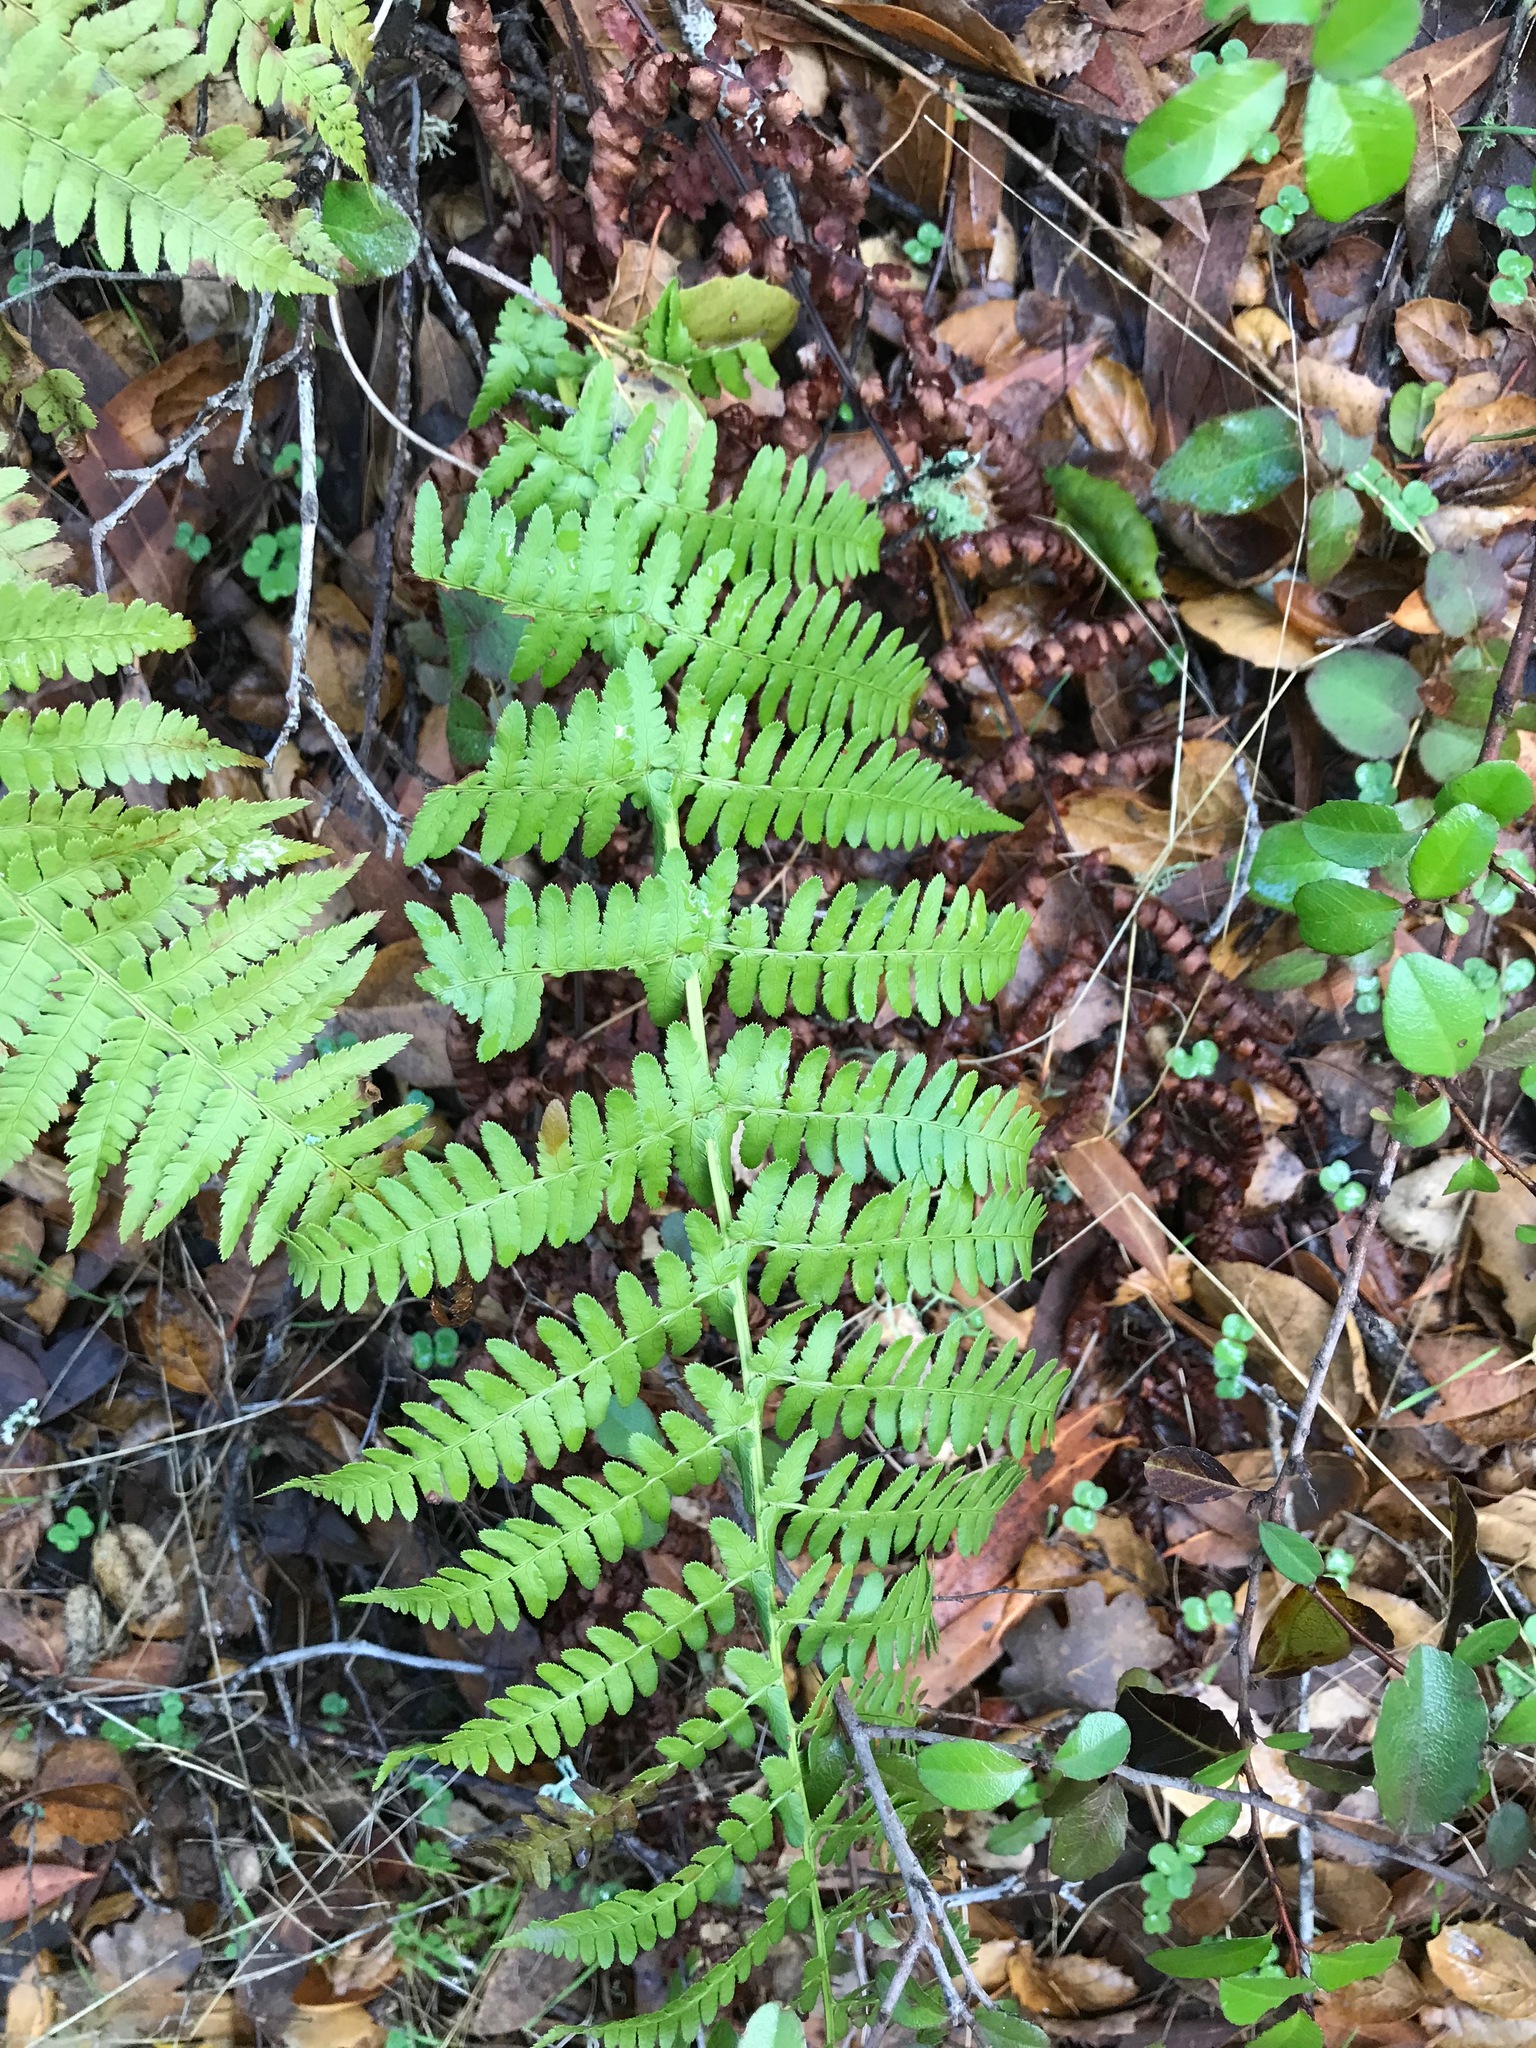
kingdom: Plantae
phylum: Tracheophyta
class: Polypodiopsida
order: Polypodiales
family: Dryopteridaceae
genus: Dryopteris
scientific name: Dryopteris arguta
